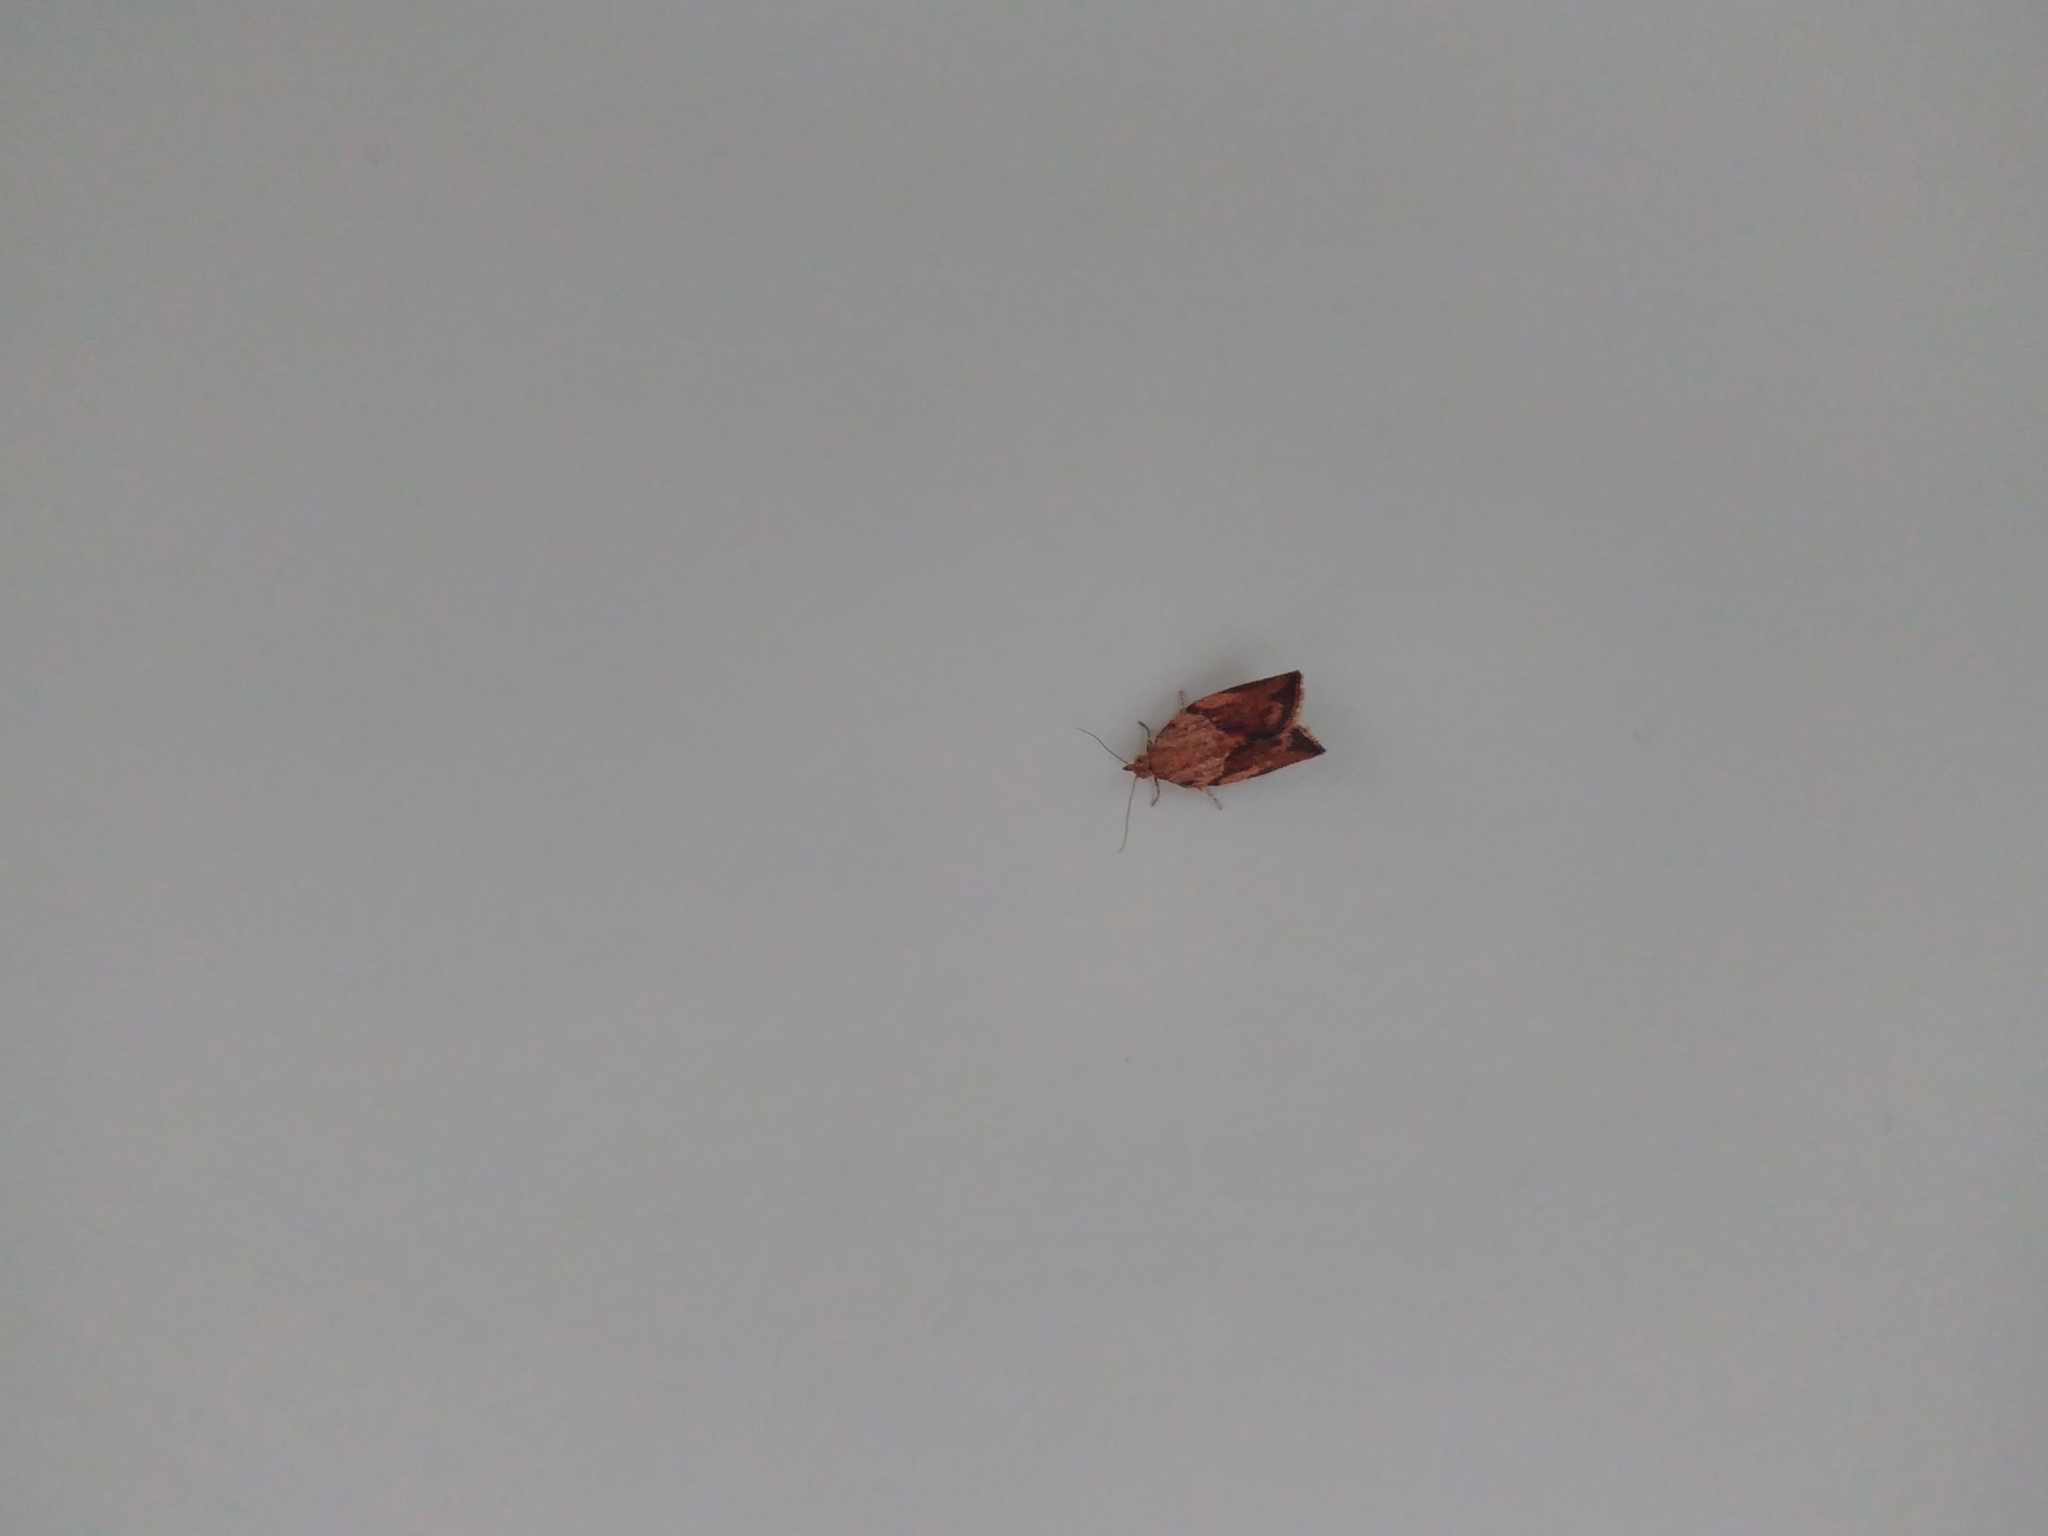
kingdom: Animalia
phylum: Arthropoda
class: Insecta
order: Lepidoptera
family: Tortricidae
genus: Epiphyas
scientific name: Epiphyas postvittana
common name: Light brown apple moth
